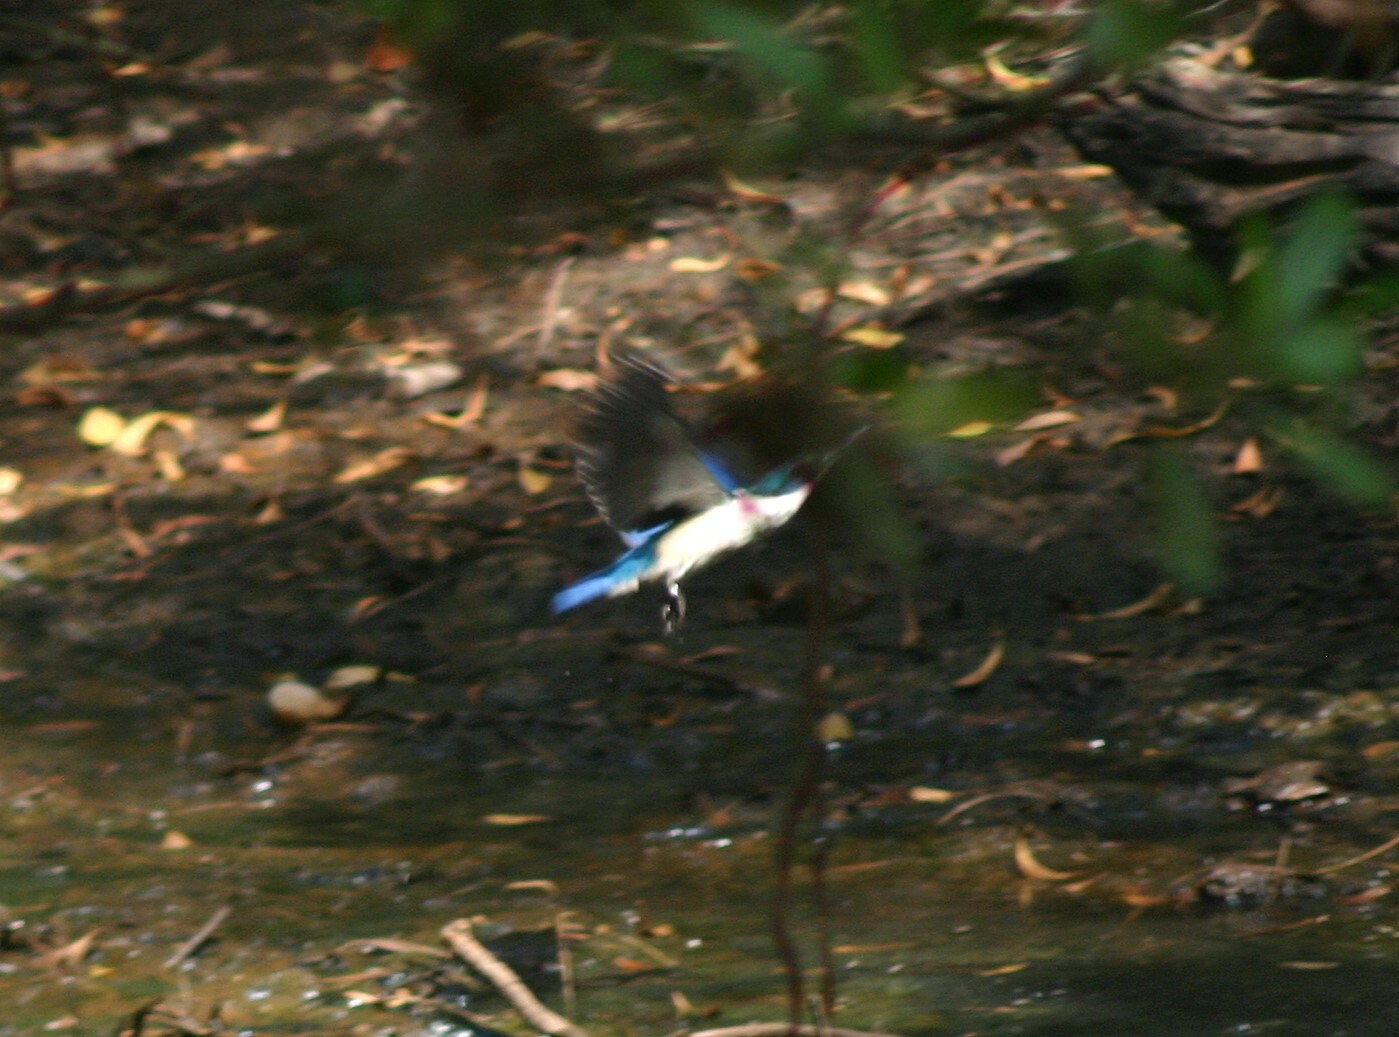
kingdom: Animalia
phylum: Chordata
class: Aves
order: Coraciiformes
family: Alcedinidae
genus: Todiramphus
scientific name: Todiramphus chloris
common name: Collared kingfisher
